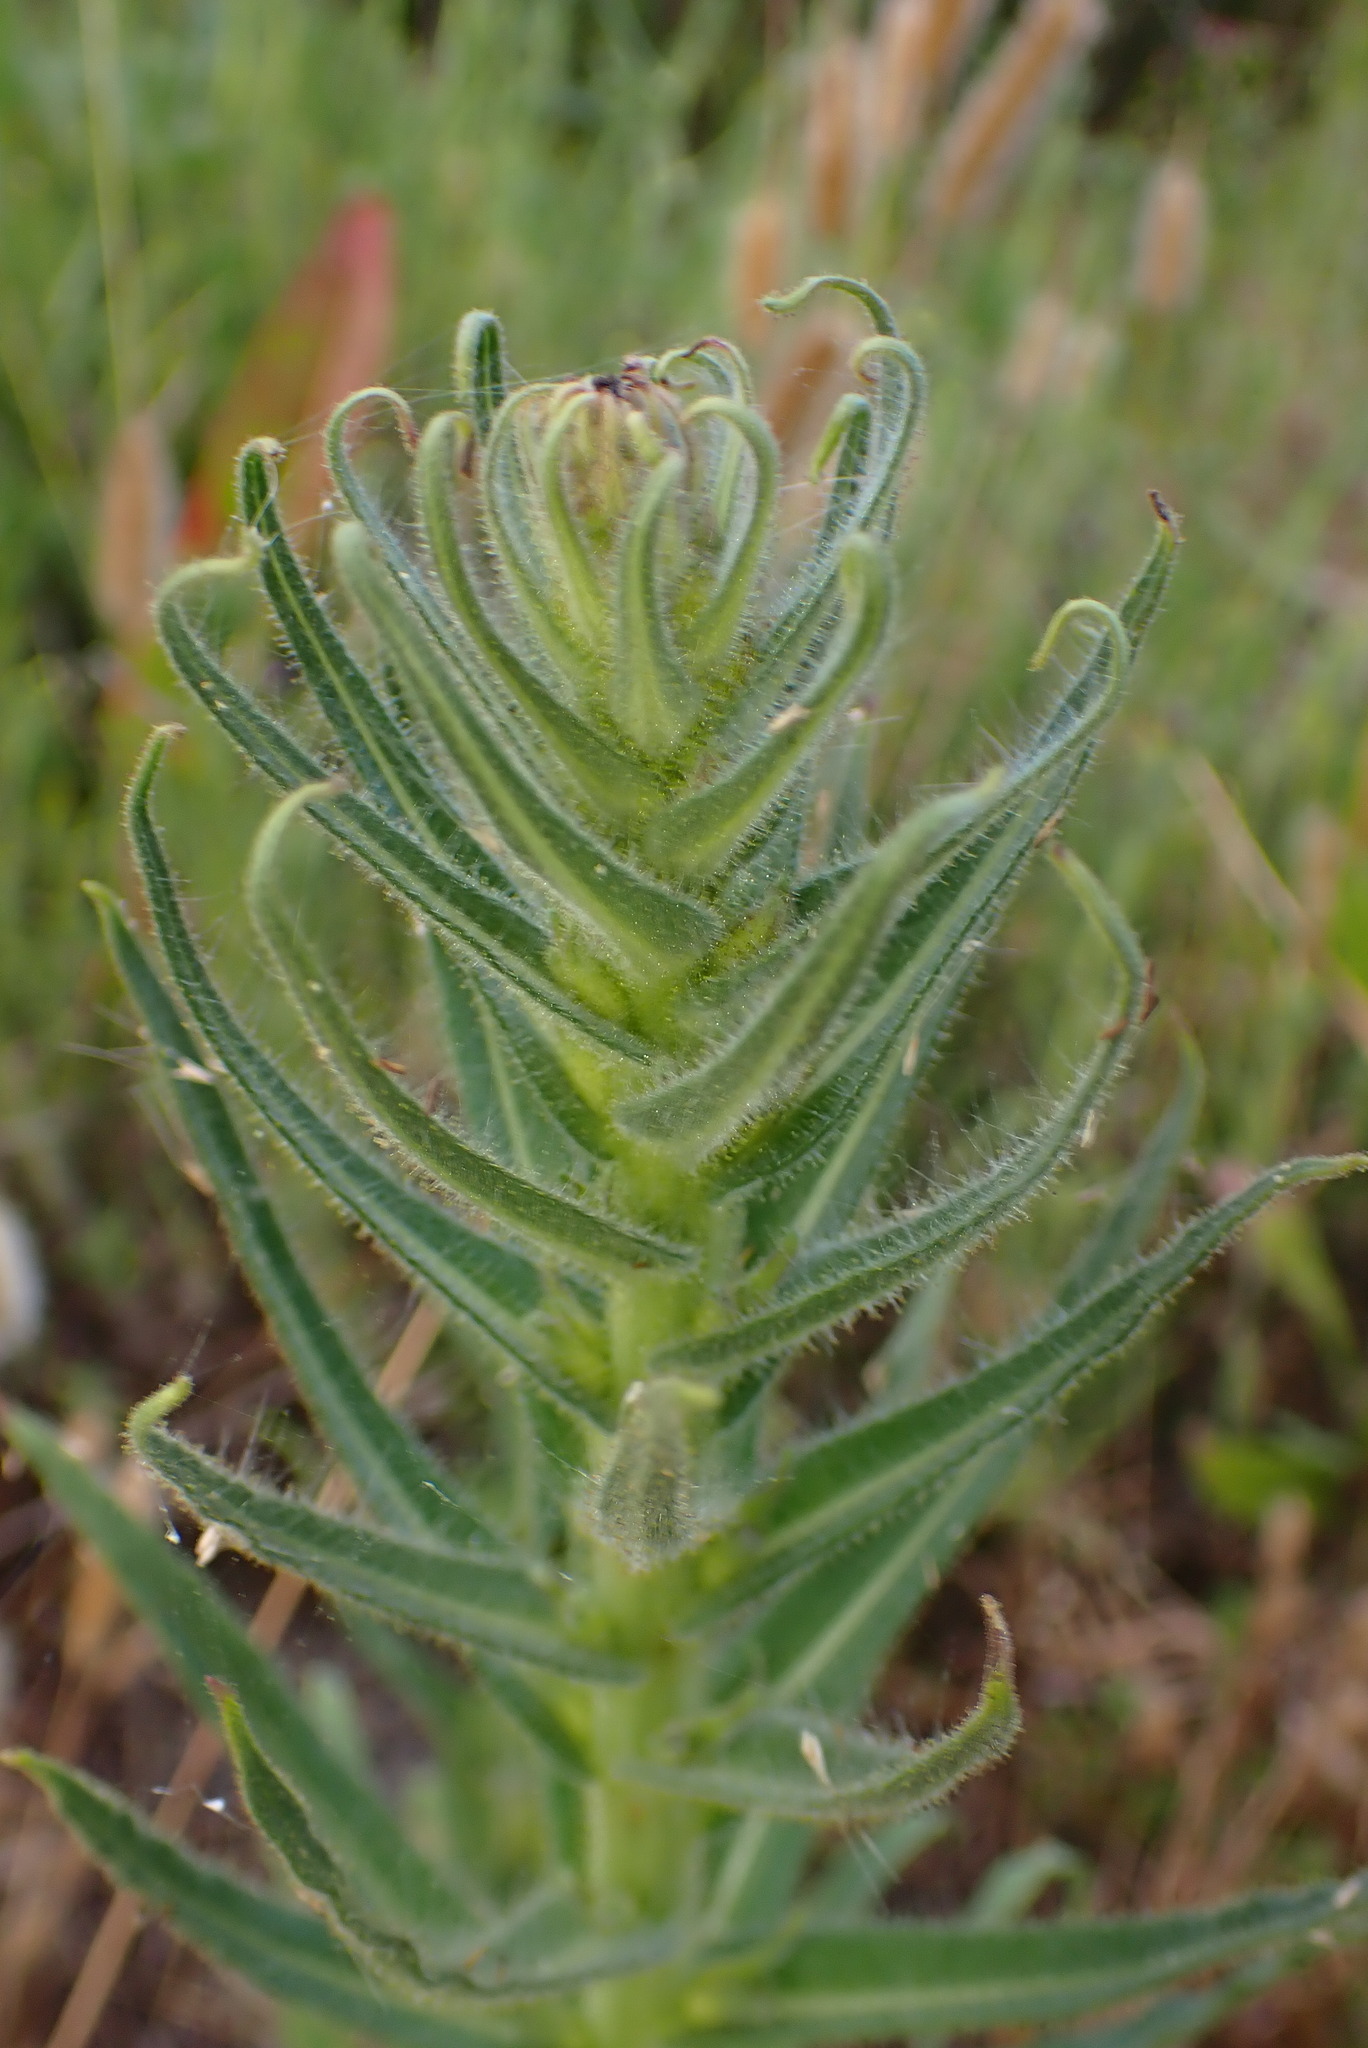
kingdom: Plantae
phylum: Tracheophyta
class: Magnoliopsida
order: Asterales
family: Asteraceae
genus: Madia
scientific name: Madia sativa
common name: Coast tarweed
